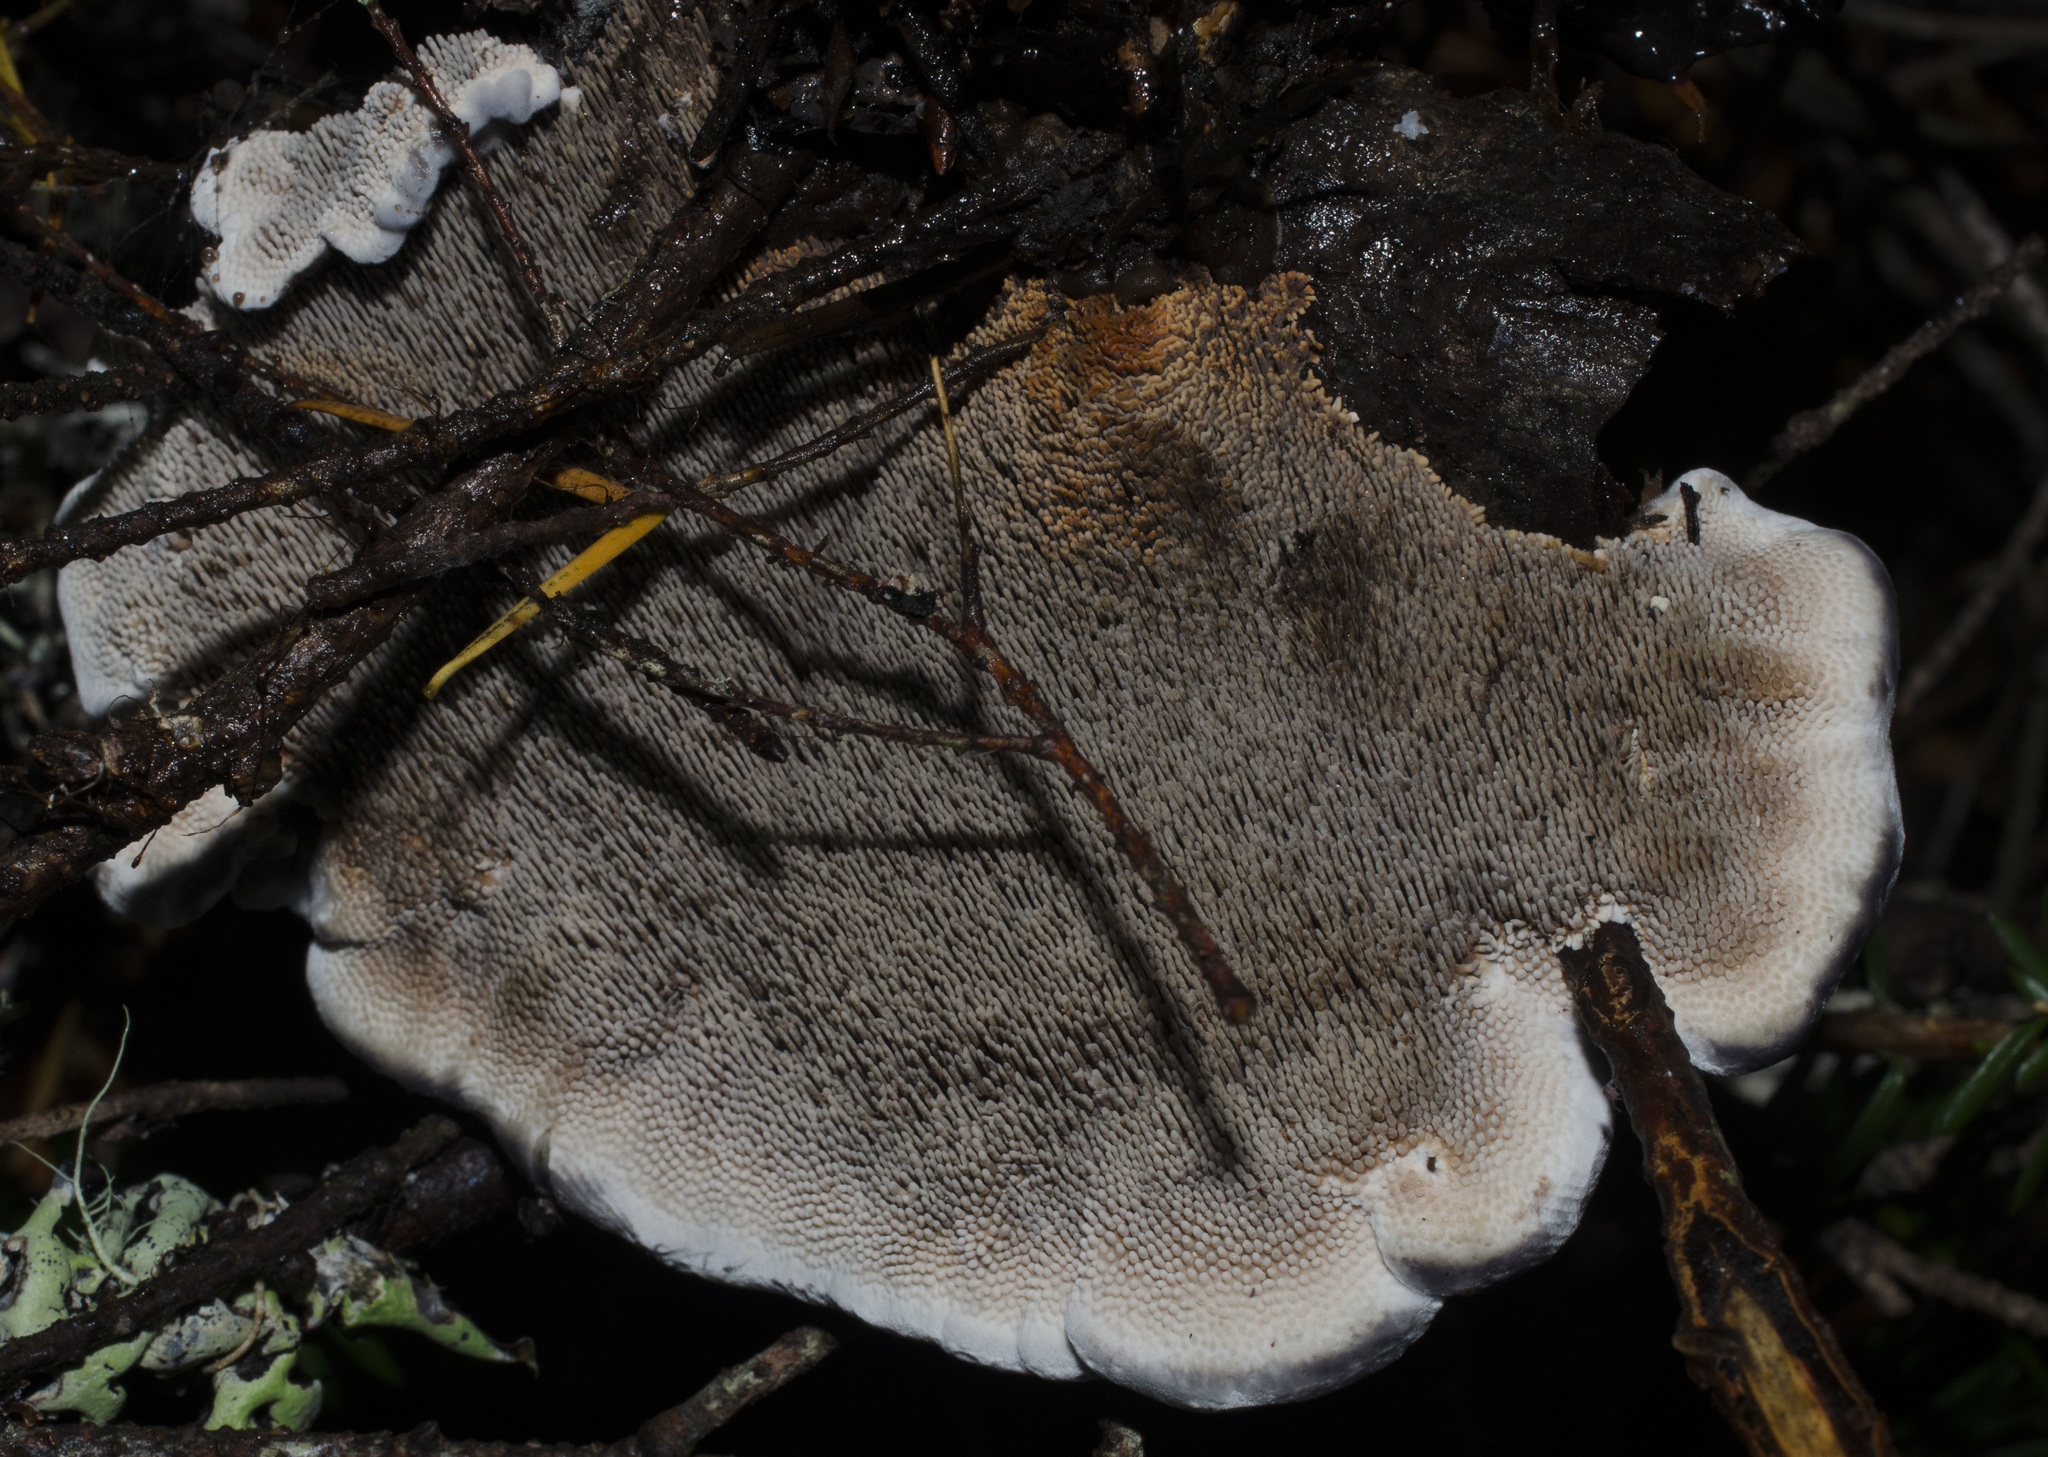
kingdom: Fungi
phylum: Basidiomycota
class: Agaricomycetes
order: Thelephorales
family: Bankeraceae
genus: Hydnellum
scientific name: Hydnellum caeruleum
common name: Blue corky spine fungus
